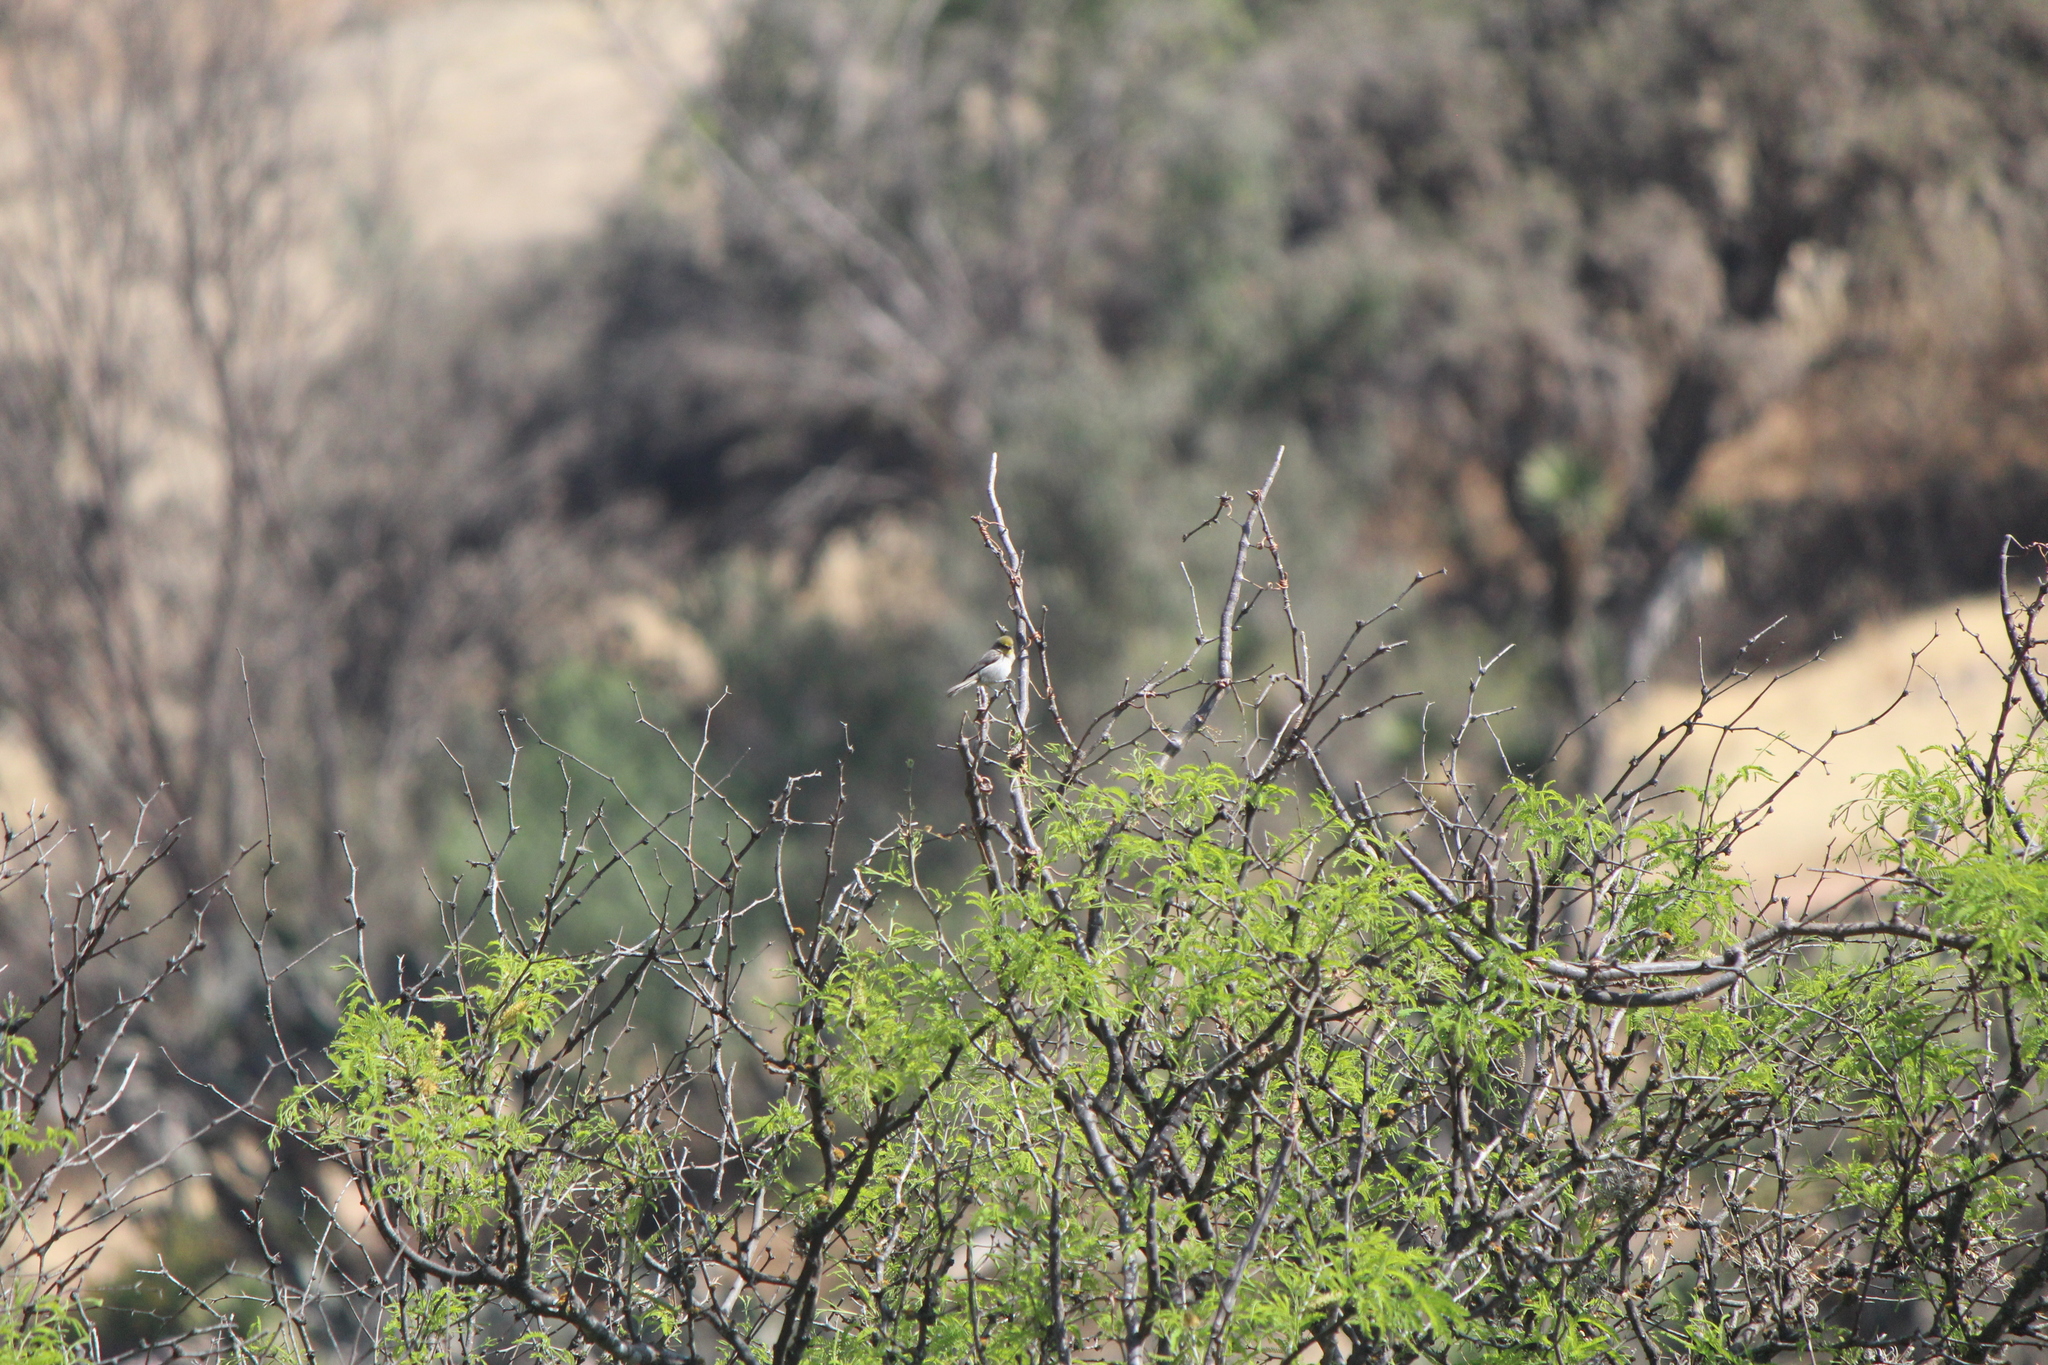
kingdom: Animalia
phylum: Chordata
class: Aves
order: Passeriformes
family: Remizidae
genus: Auriparus
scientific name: Auriparus flaviceps
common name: Verdin
